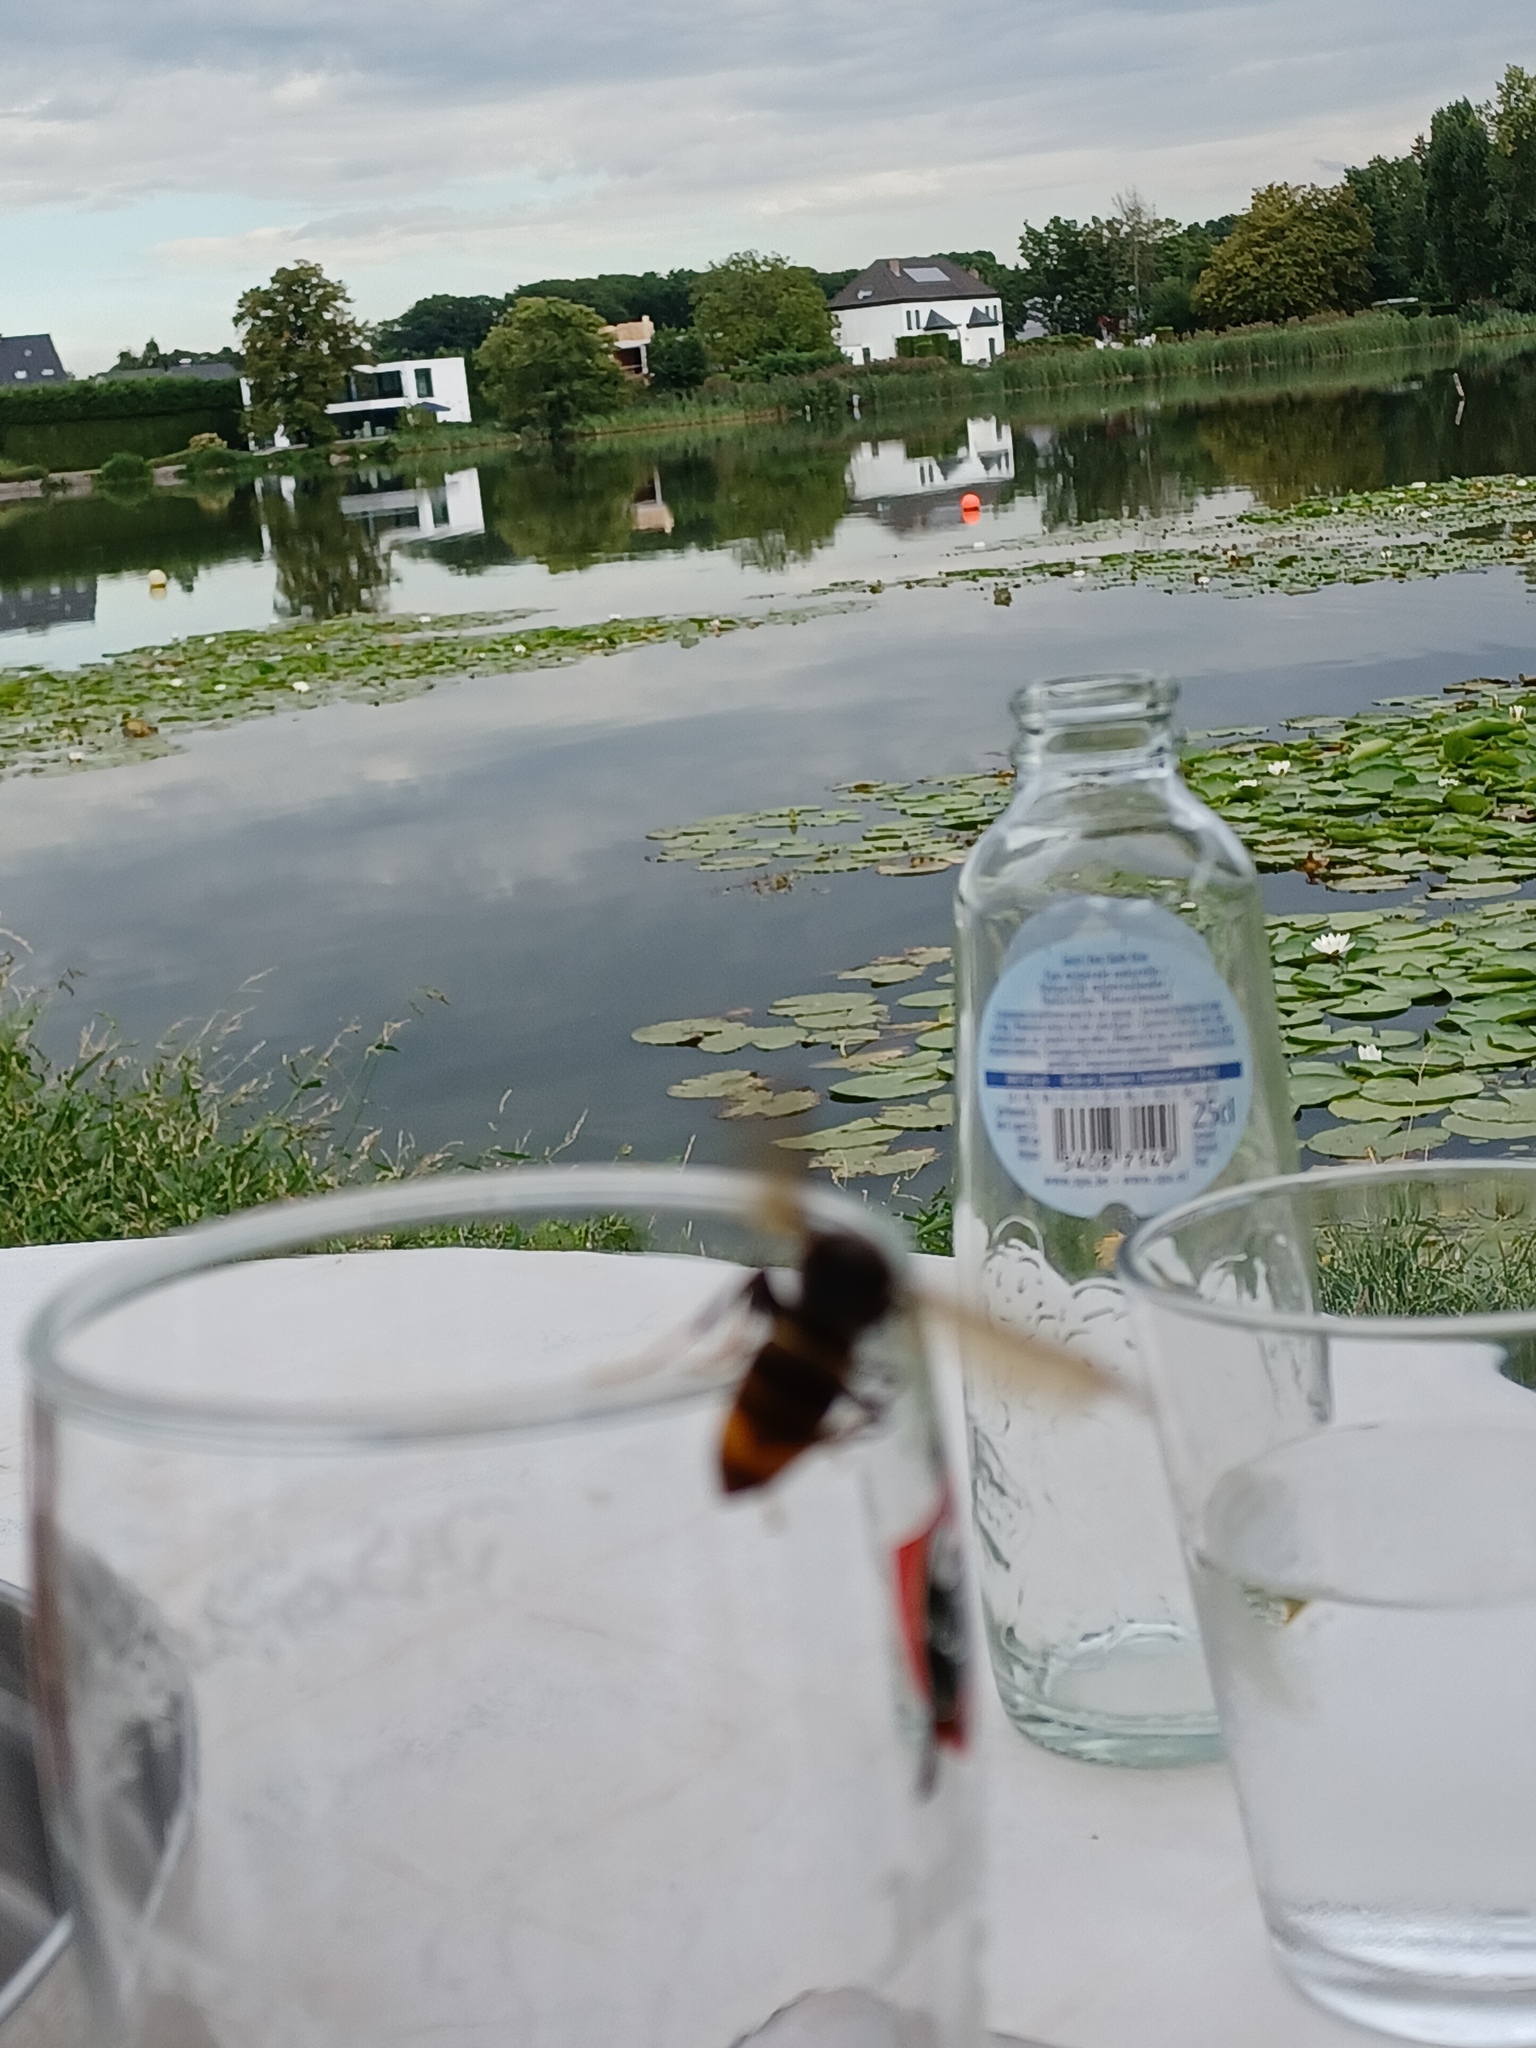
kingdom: Animalia
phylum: Arthropoda
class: Insecta
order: Hymenoptera
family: Vespidae
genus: Vespa
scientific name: Vespa velutina
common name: Asian hornet
